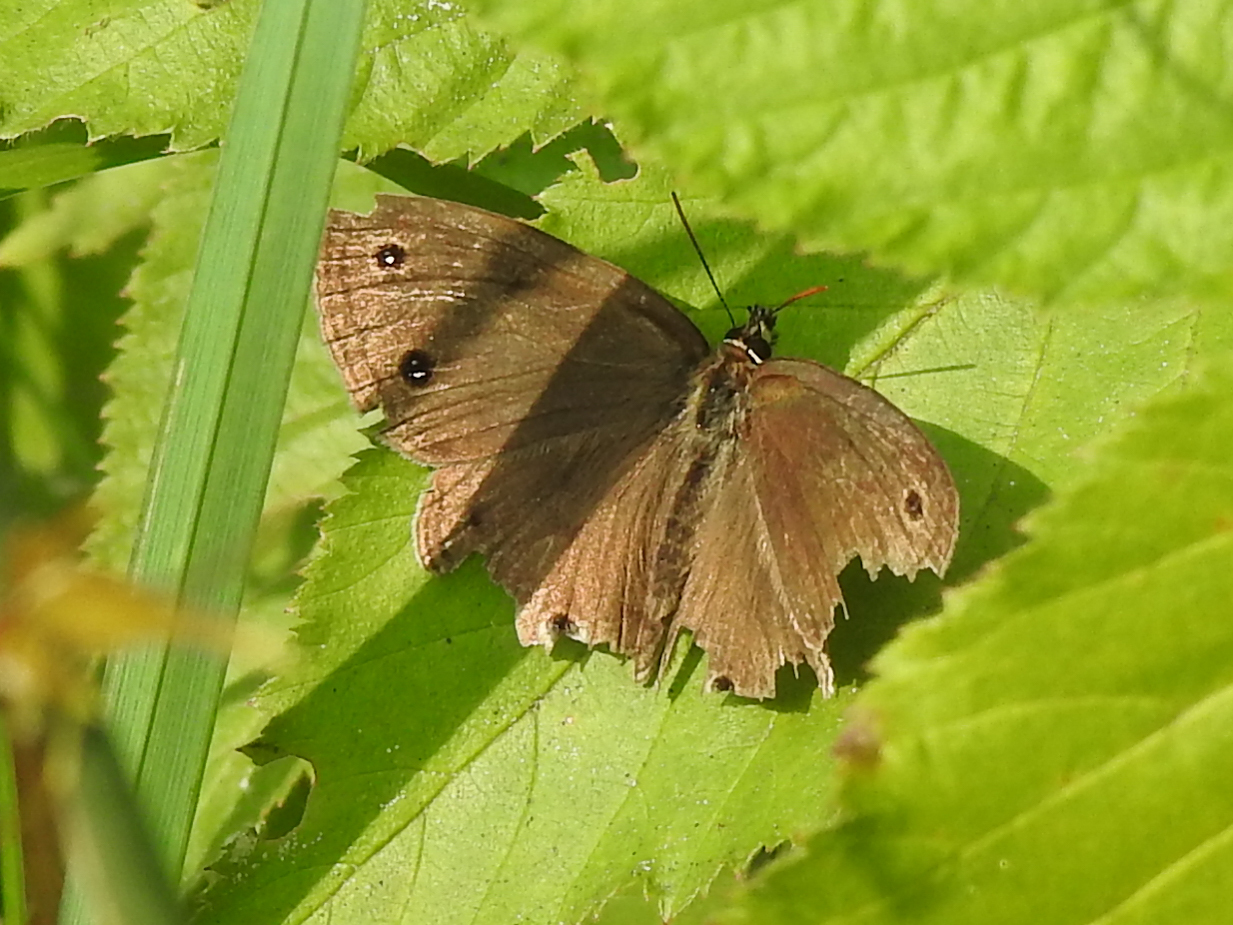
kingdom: Animalia
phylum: Arthropoda
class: Insecta
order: Lepidoptera
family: Nymphalidae
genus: Euptychia
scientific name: Euptychia cymela
